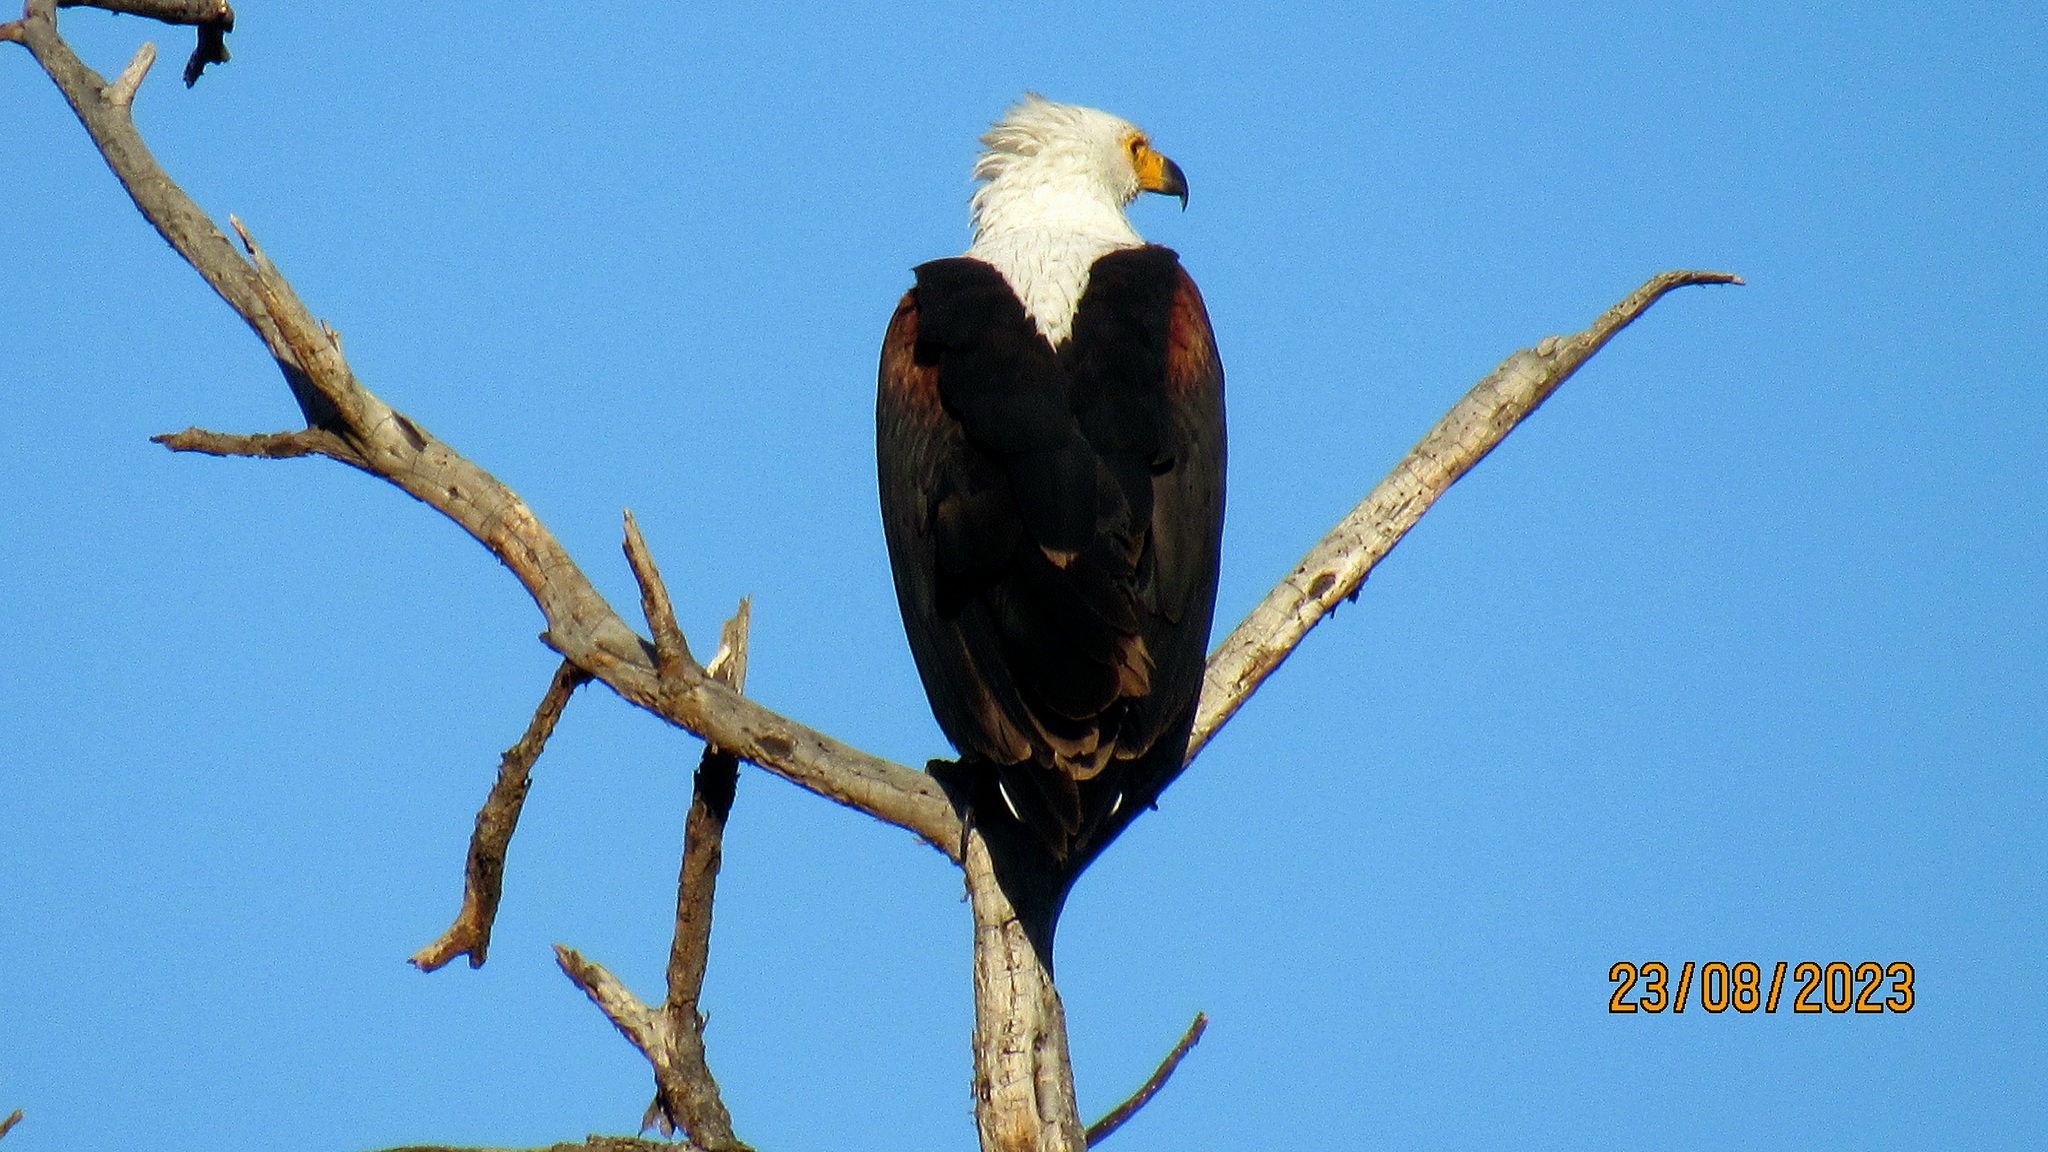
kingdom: Animalia
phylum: Chordata
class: Aves
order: Accipitriformes
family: Accipitridae
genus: Haliaeetus
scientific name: Haliaeetus vocifer
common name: African fish eagle
